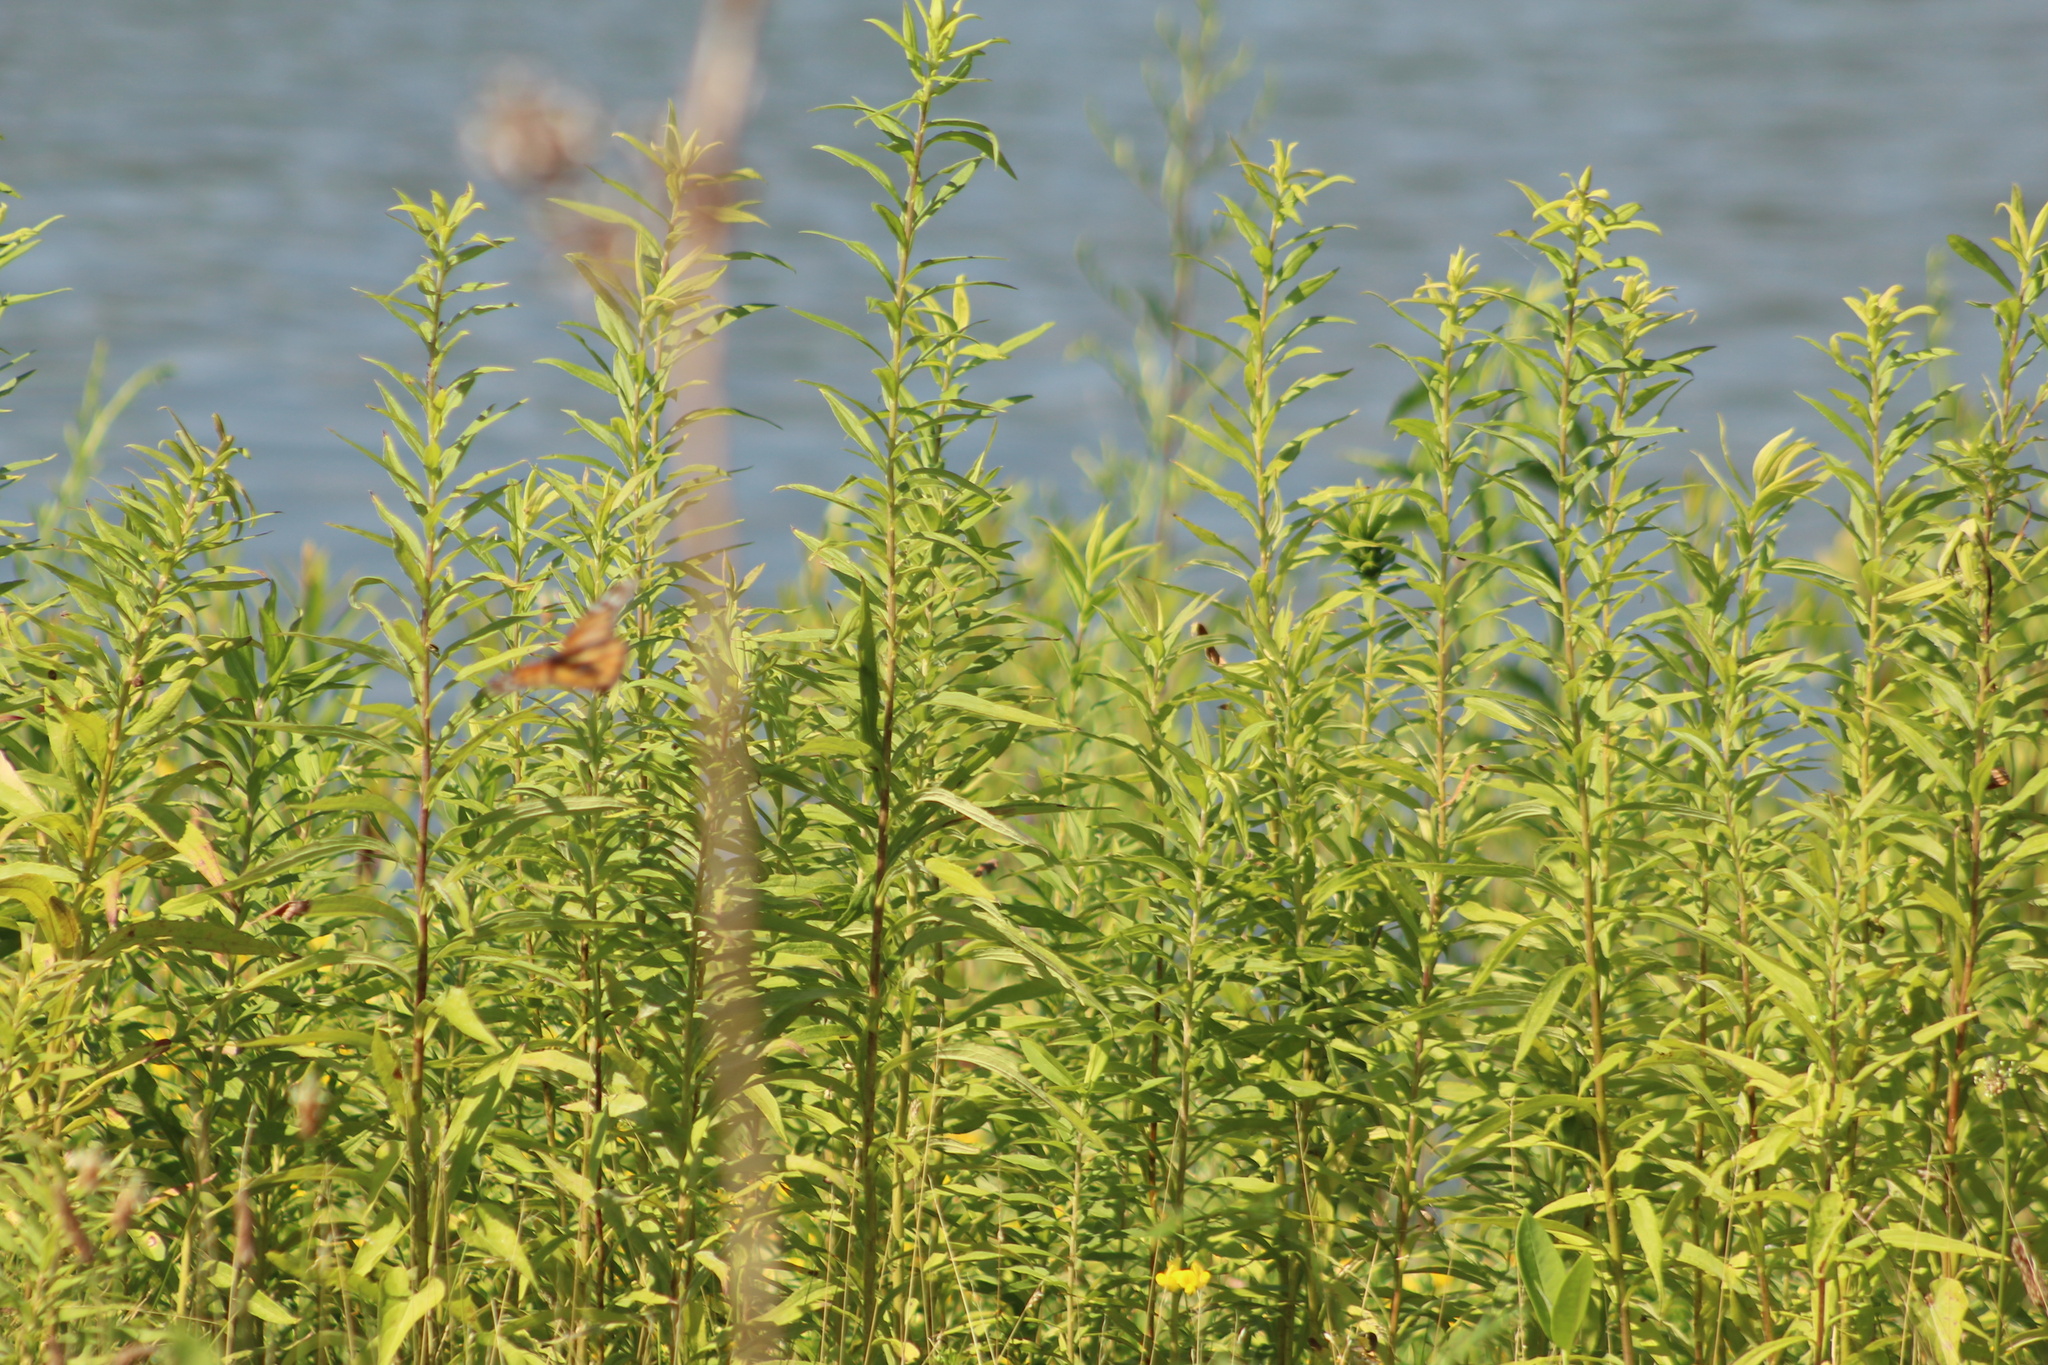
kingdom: Animalia
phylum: Arthropoda
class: Insecta
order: Lepidoptera
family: Nymphalidae
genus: Danaus
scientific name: Danaus plexippus
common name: Monarch
